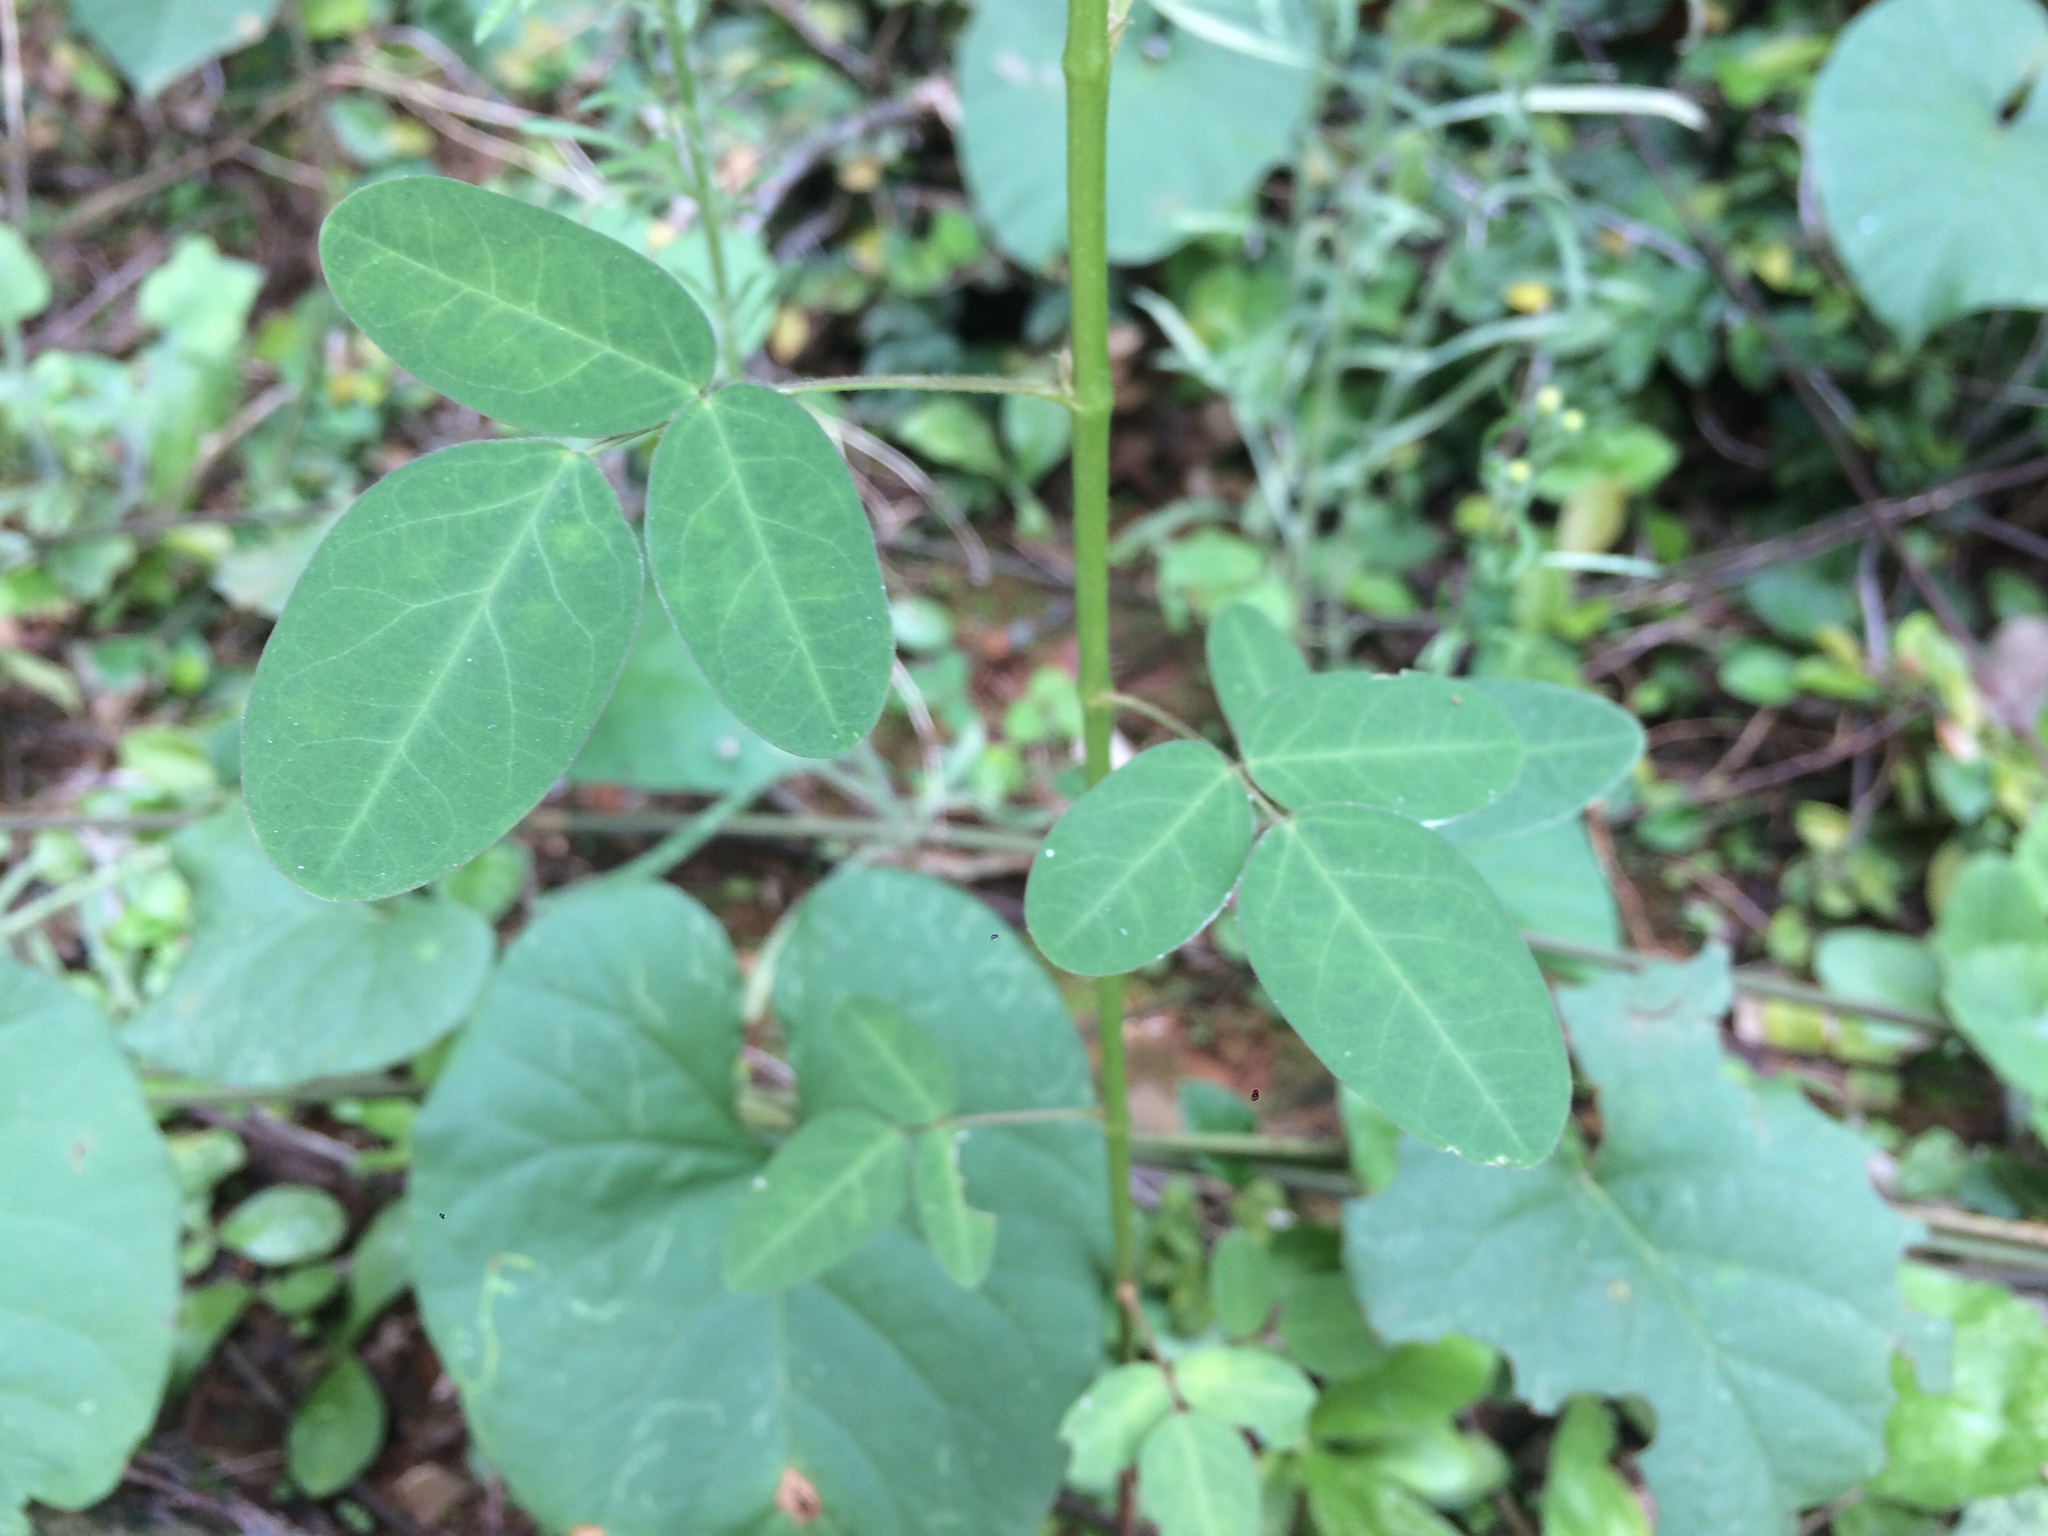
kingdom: Plantae
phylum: Tracheophyta
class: Magnoliopsida
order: Oxalidales
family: Oxalidaceae
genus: Oxalis
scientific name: Oxalis barrelieri
